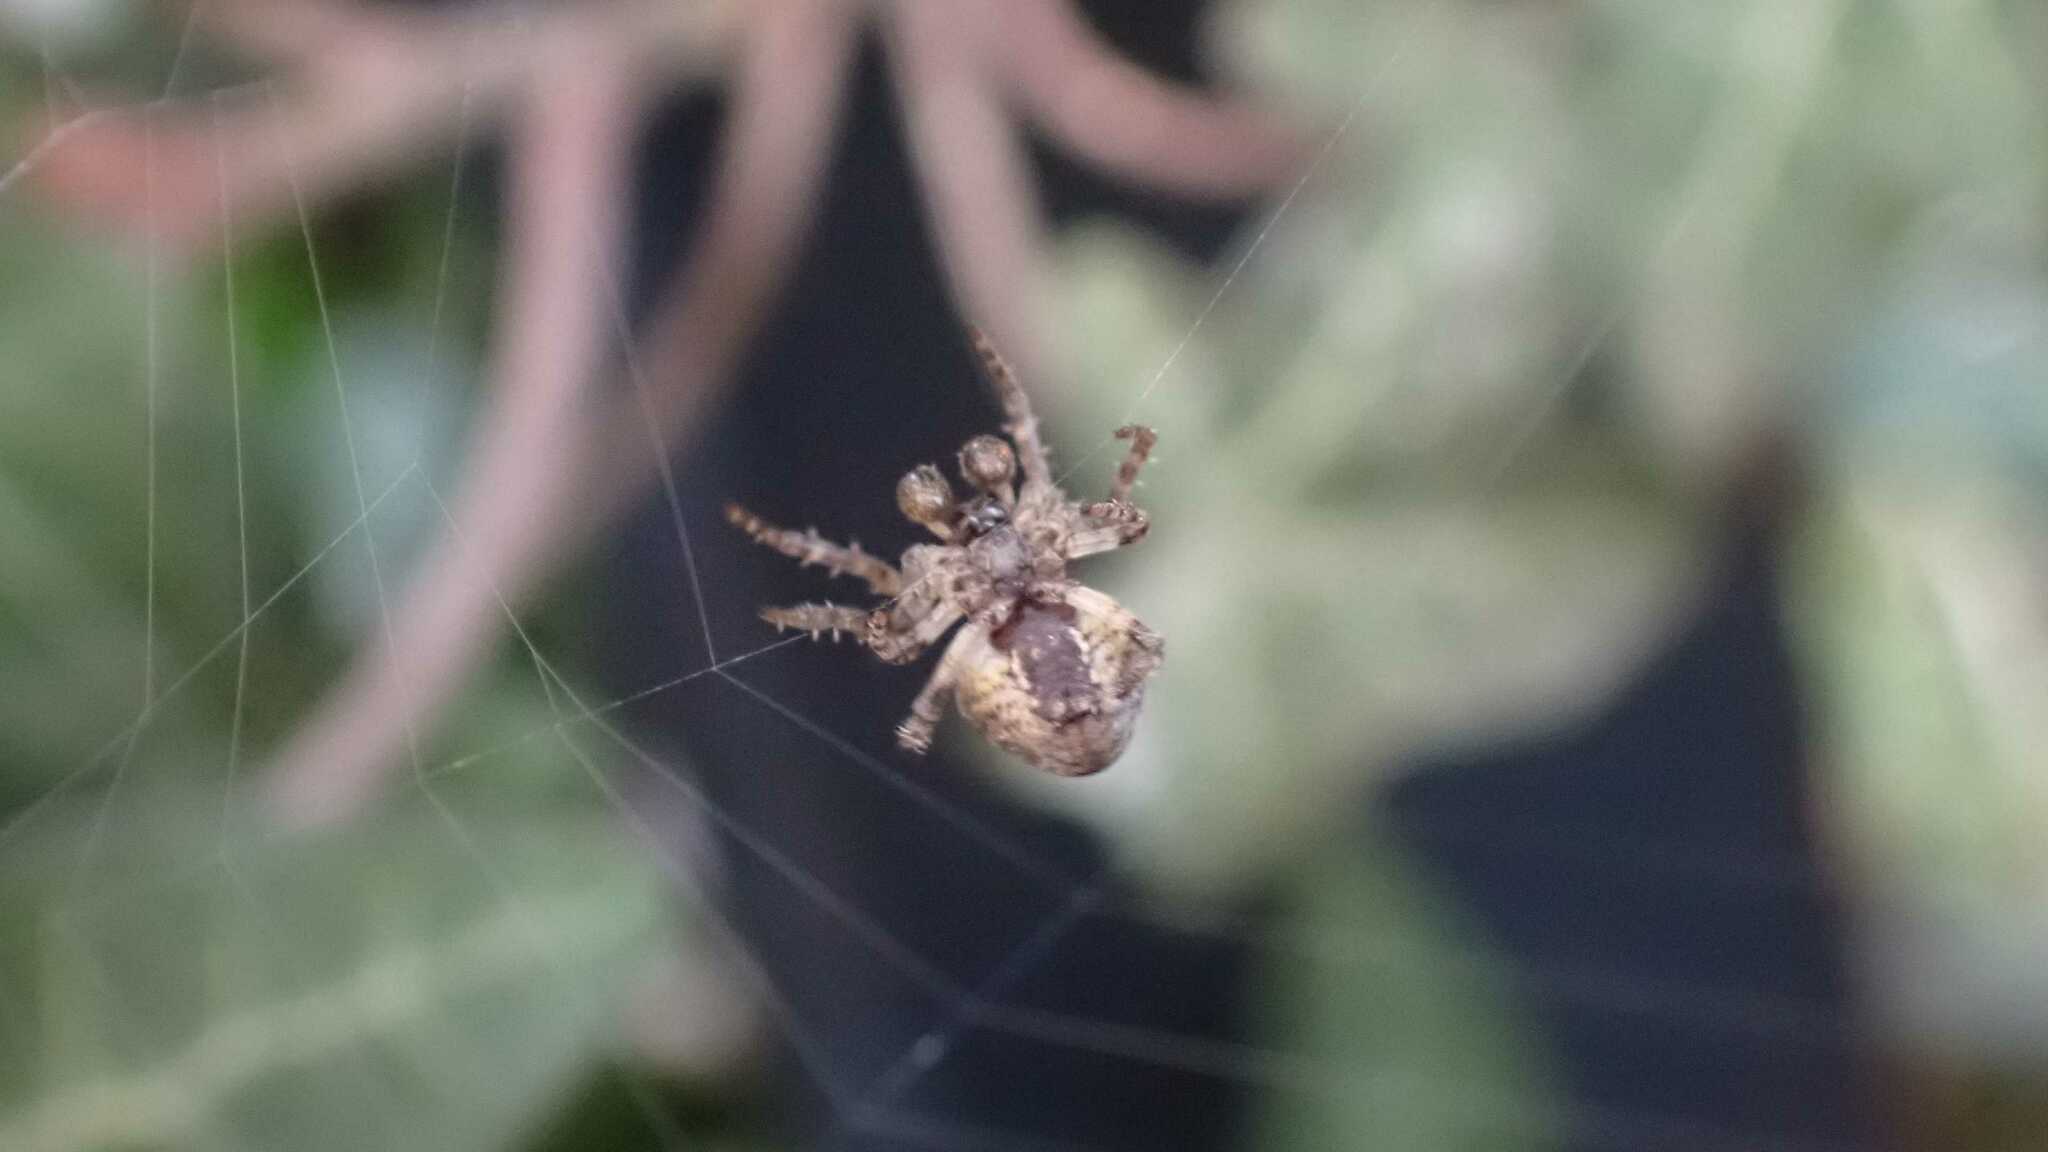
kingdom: Animalia
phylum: Arthropoda
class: Arachnida
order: Araneae
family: Araneidae
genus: Gibbaranea
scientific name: Gibbaranea bituberculata
